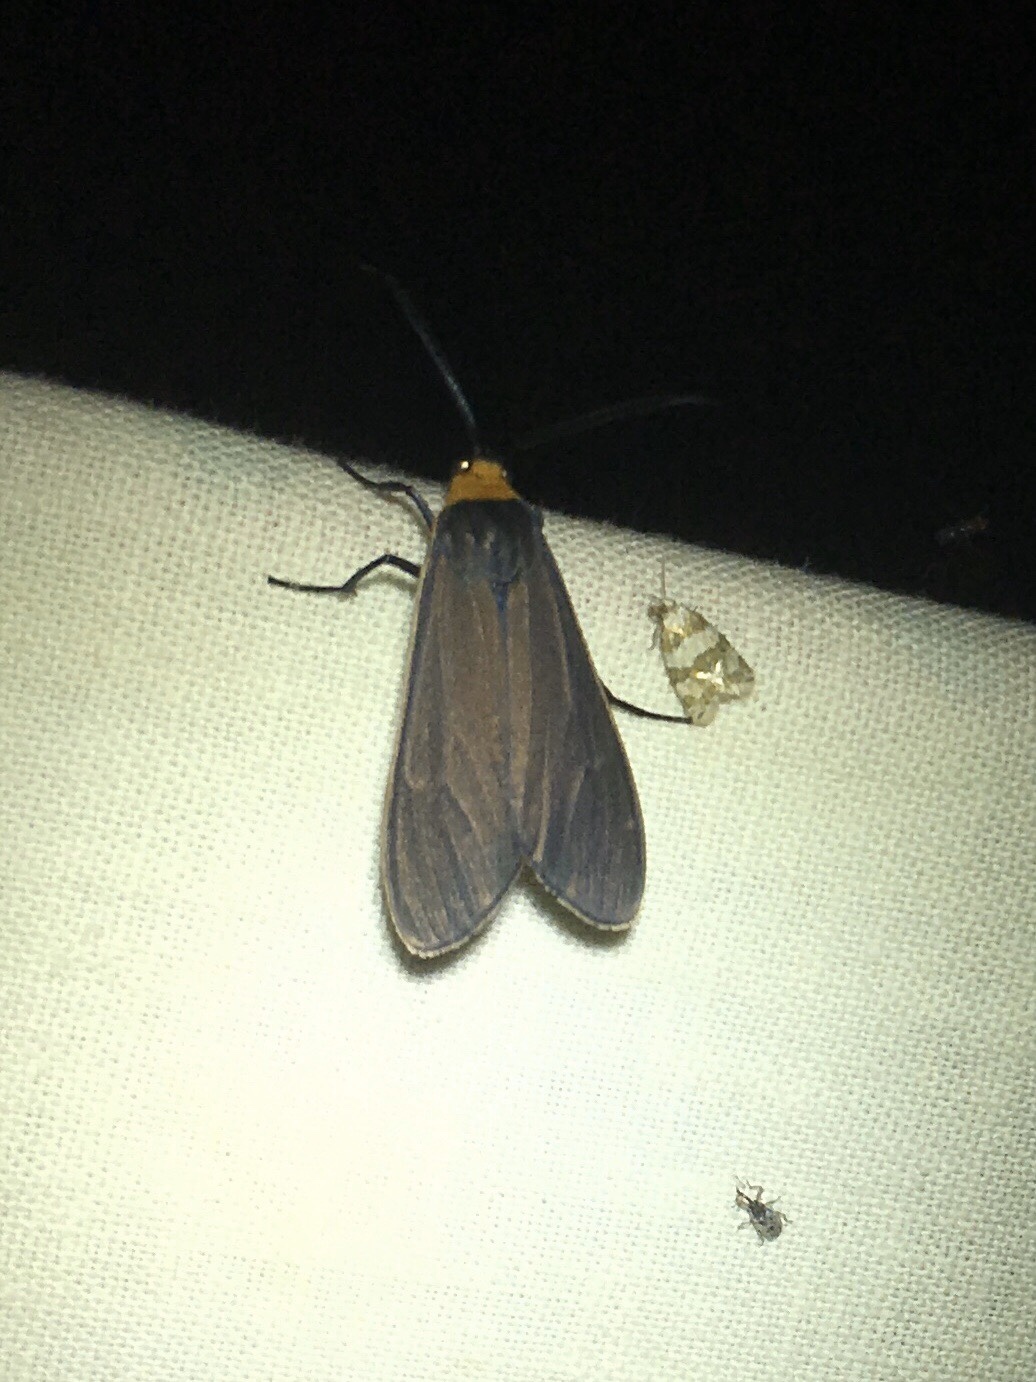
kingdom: Animalia
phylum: Arthropoda
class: Insecta
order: Lepidoptera
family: Erebidae
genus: Cisseps
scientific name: Cisseps fulvicollis
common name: Yellow-collared scape moth
